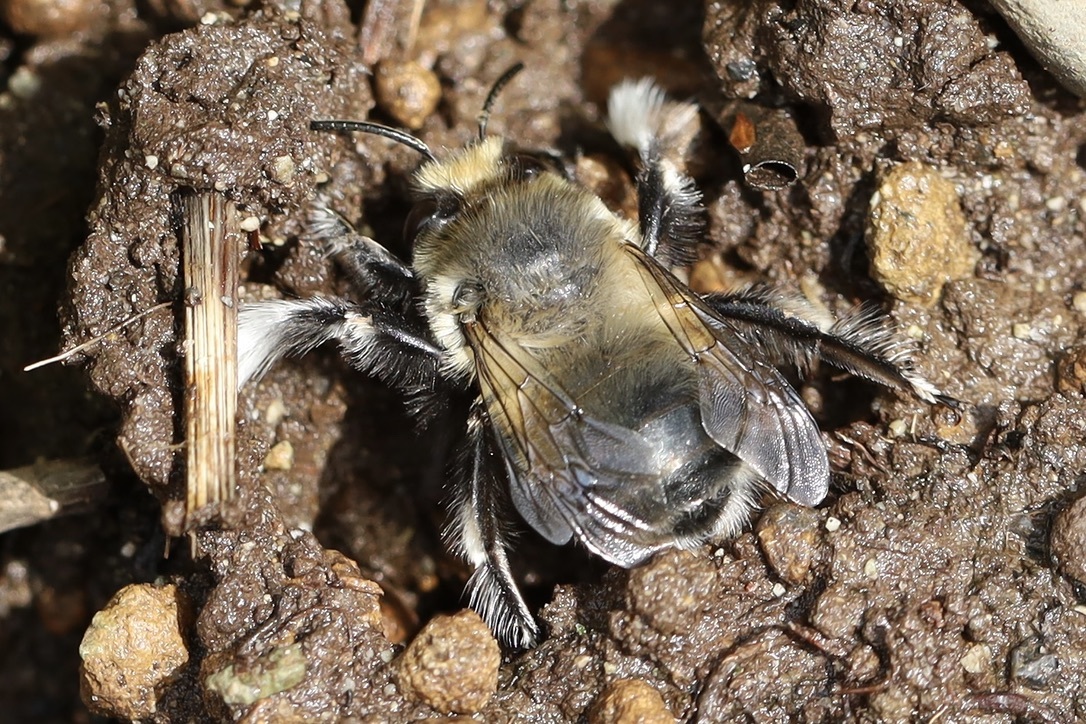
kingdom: Animalia
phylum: Arthropoda
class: Insecta
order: Hymenoptera
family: Apidae
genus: Anthophora
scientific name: Anthophora pacifica
